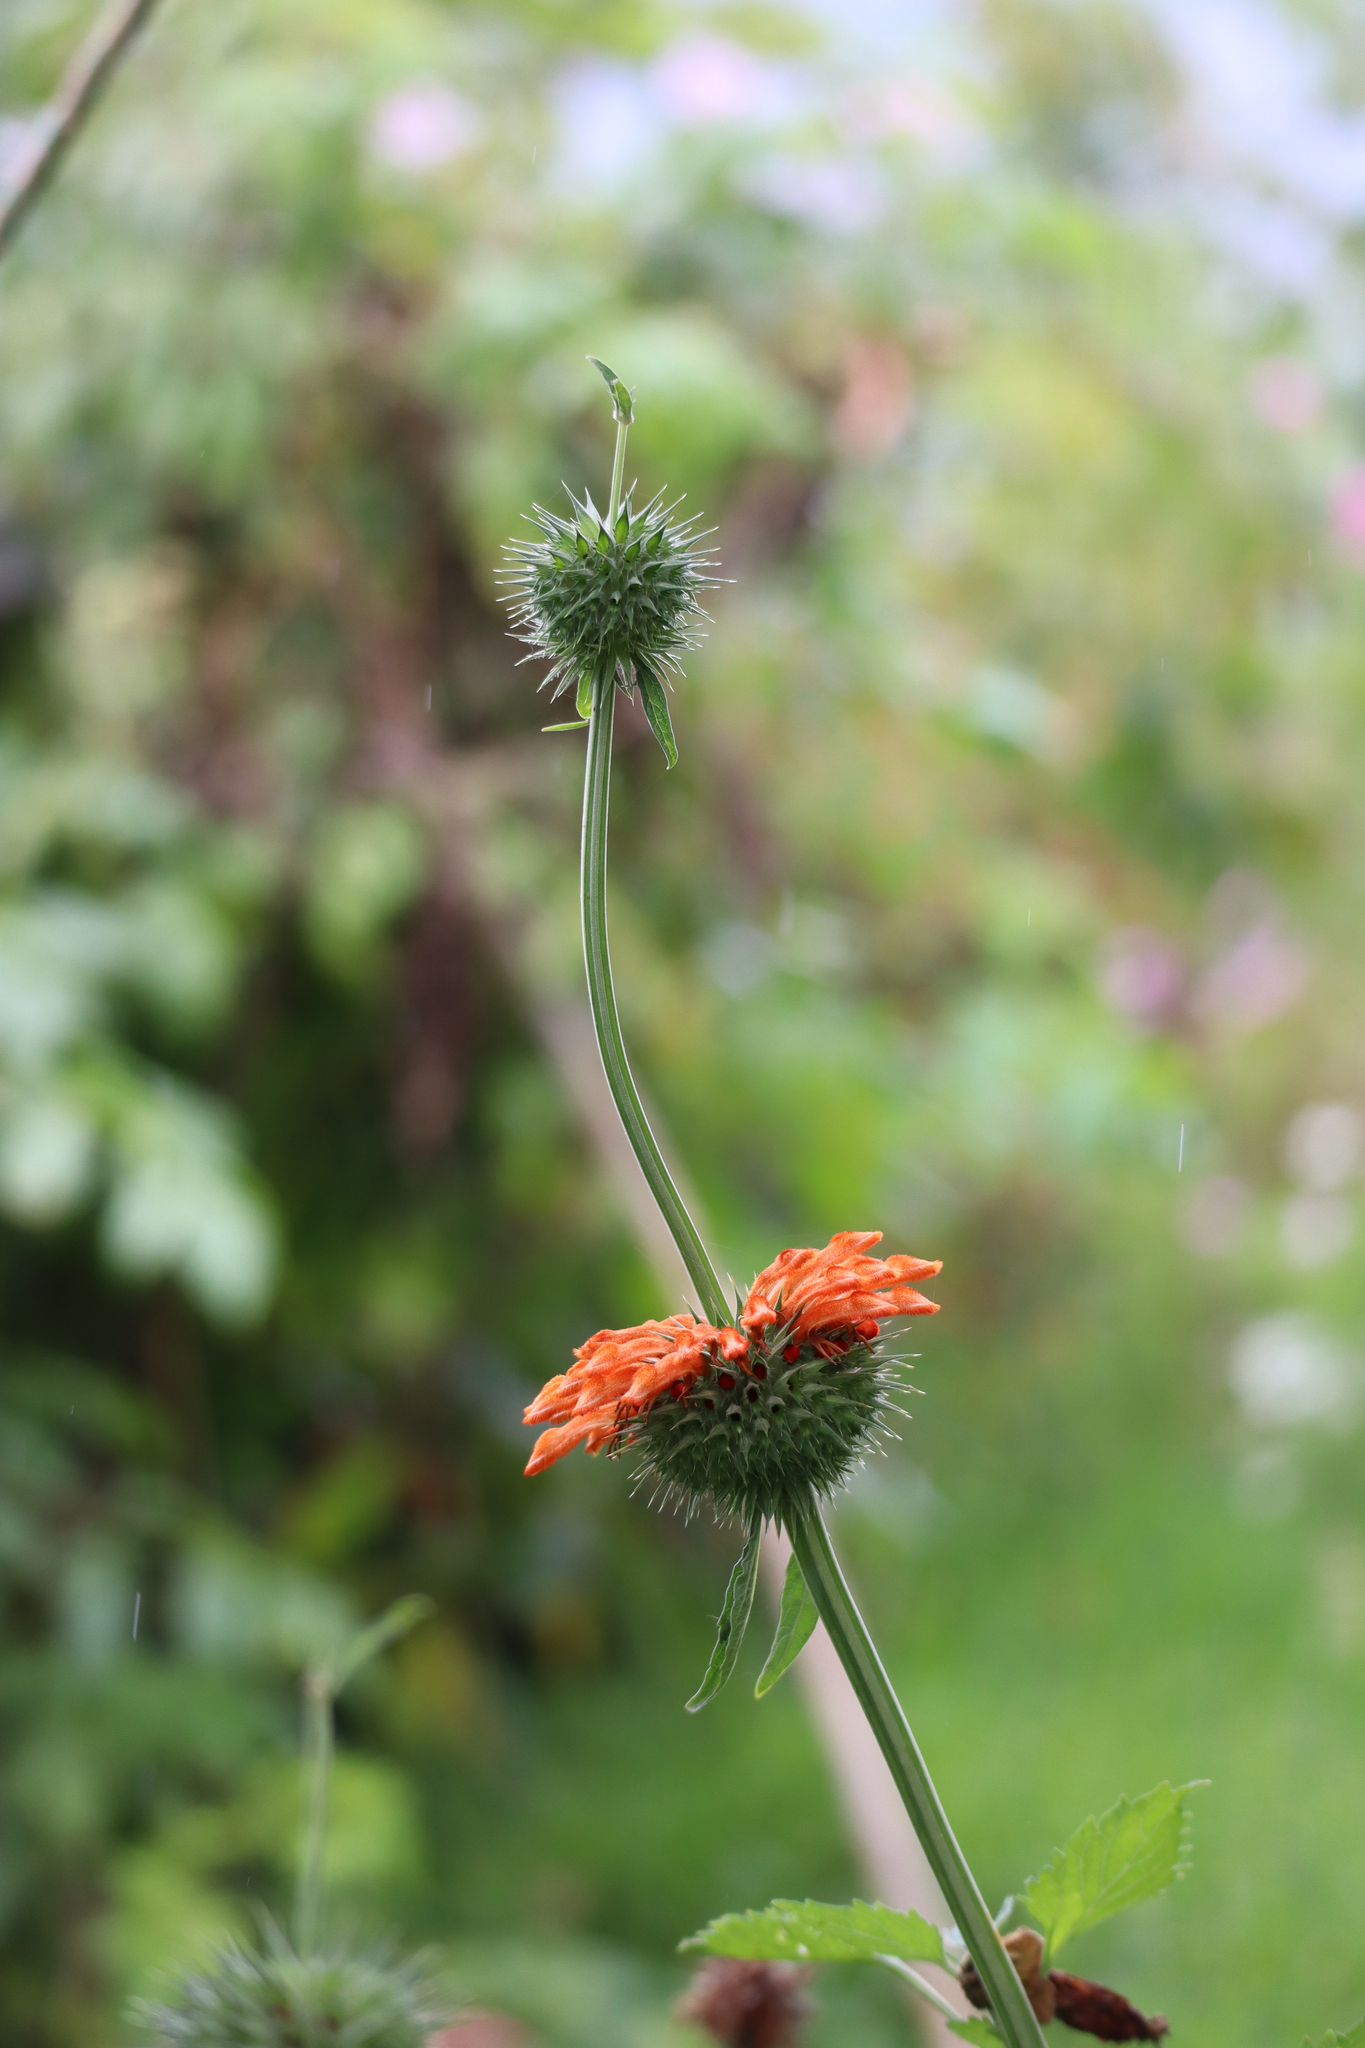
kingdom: Plantae
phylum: Tracheophyta
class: Magnoliopsida
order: Lamiales
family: Lamiaceae
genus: Leonotis
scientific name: Leonotis nepetifolia
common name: Christmas candlestick
